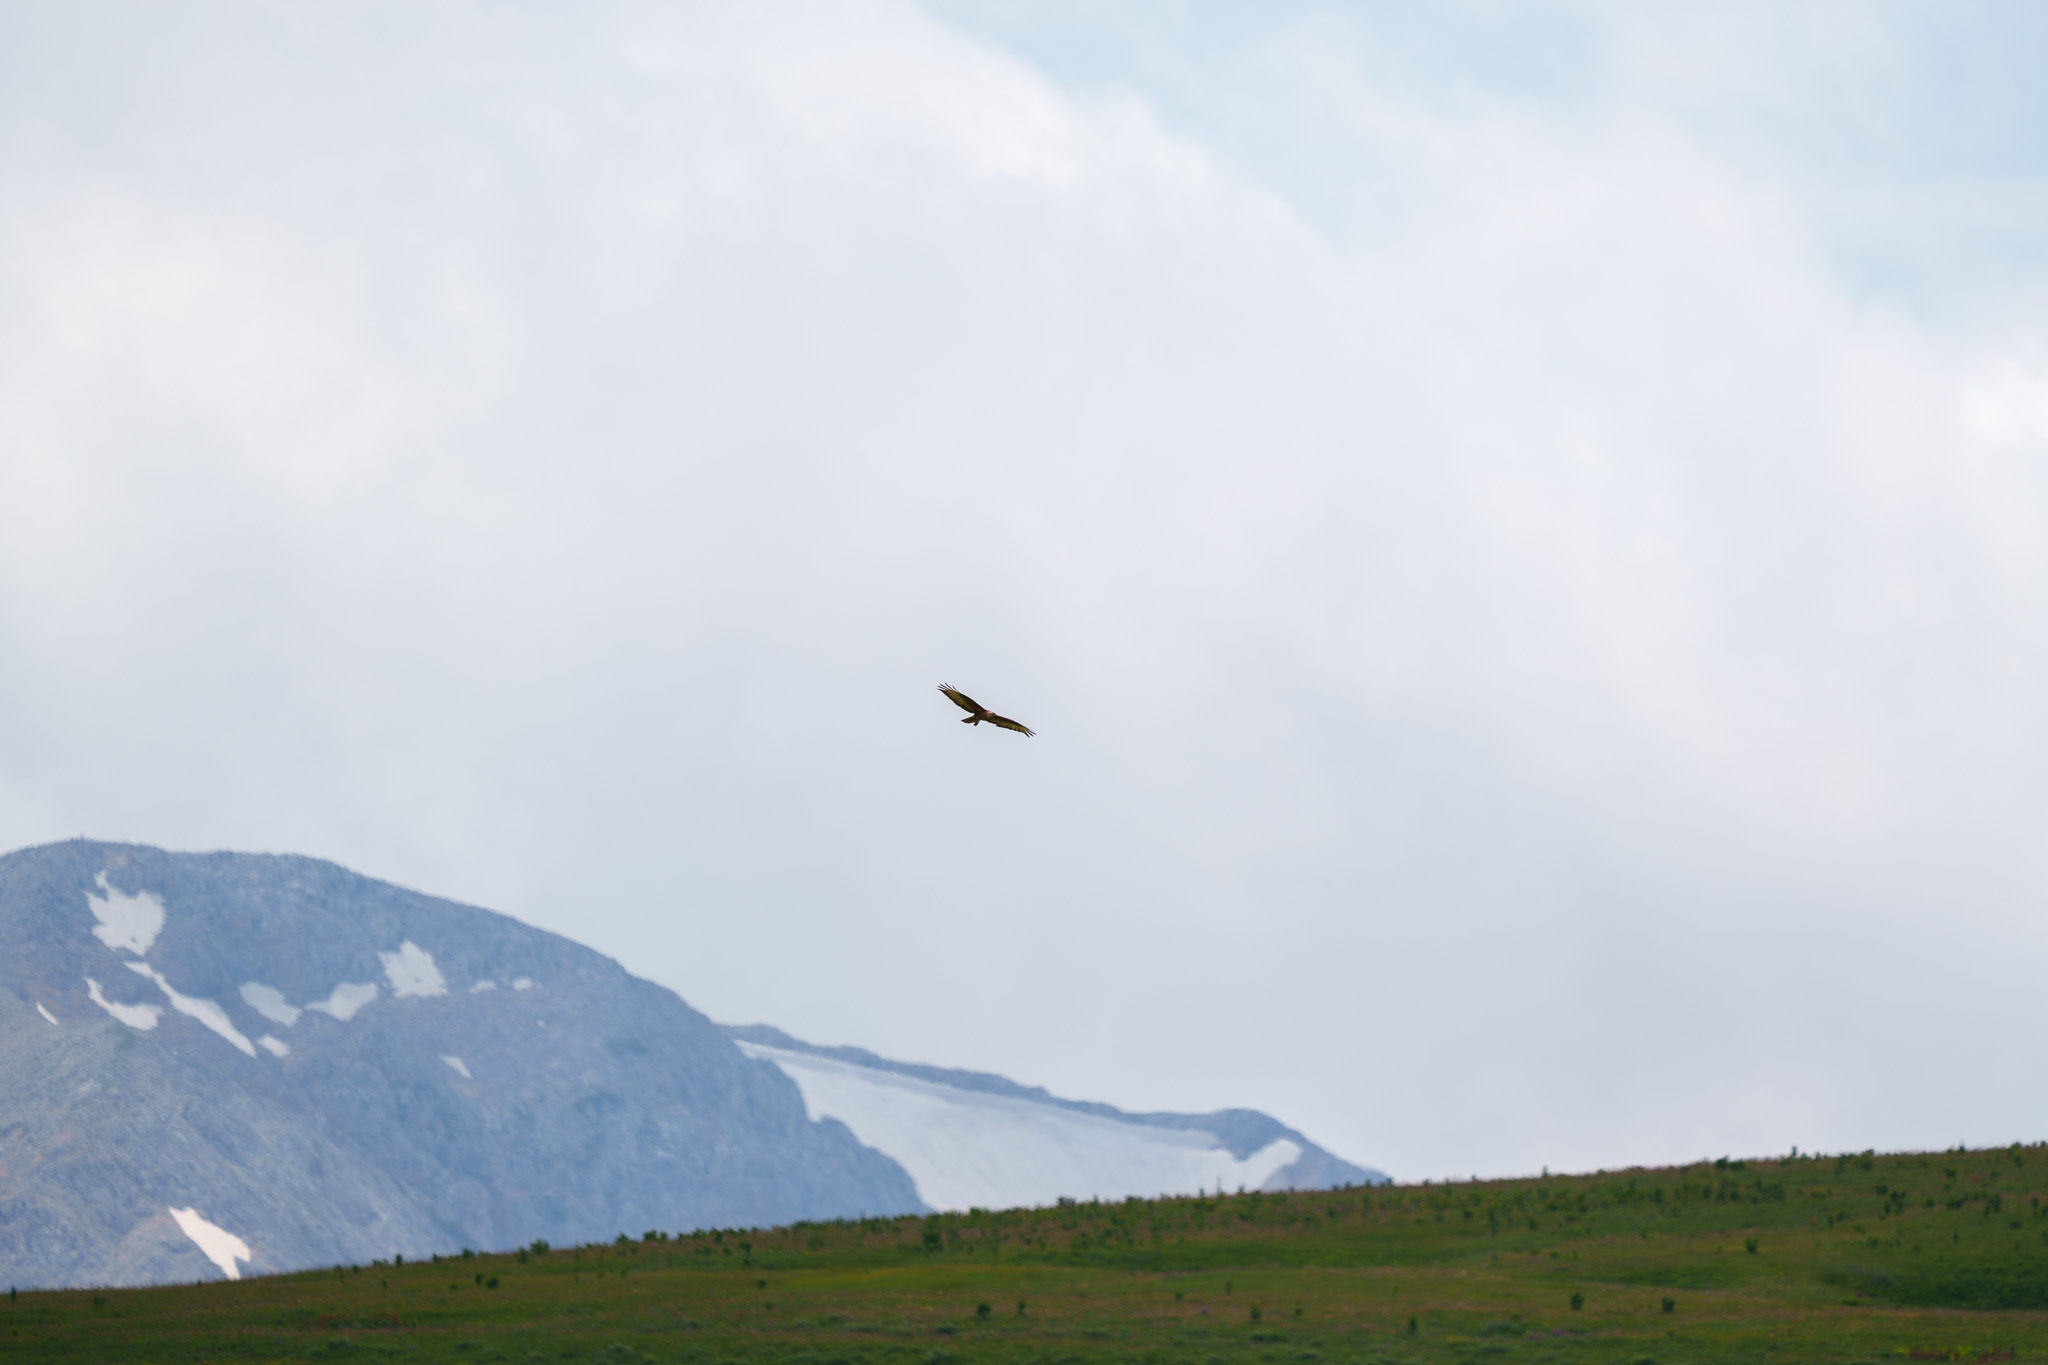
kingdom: Animalia
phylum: Chordata
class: Aves
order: Accipitriformes
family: Accipitridae
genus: Buteo
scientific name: Buteo buteo
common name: Common buzzard
